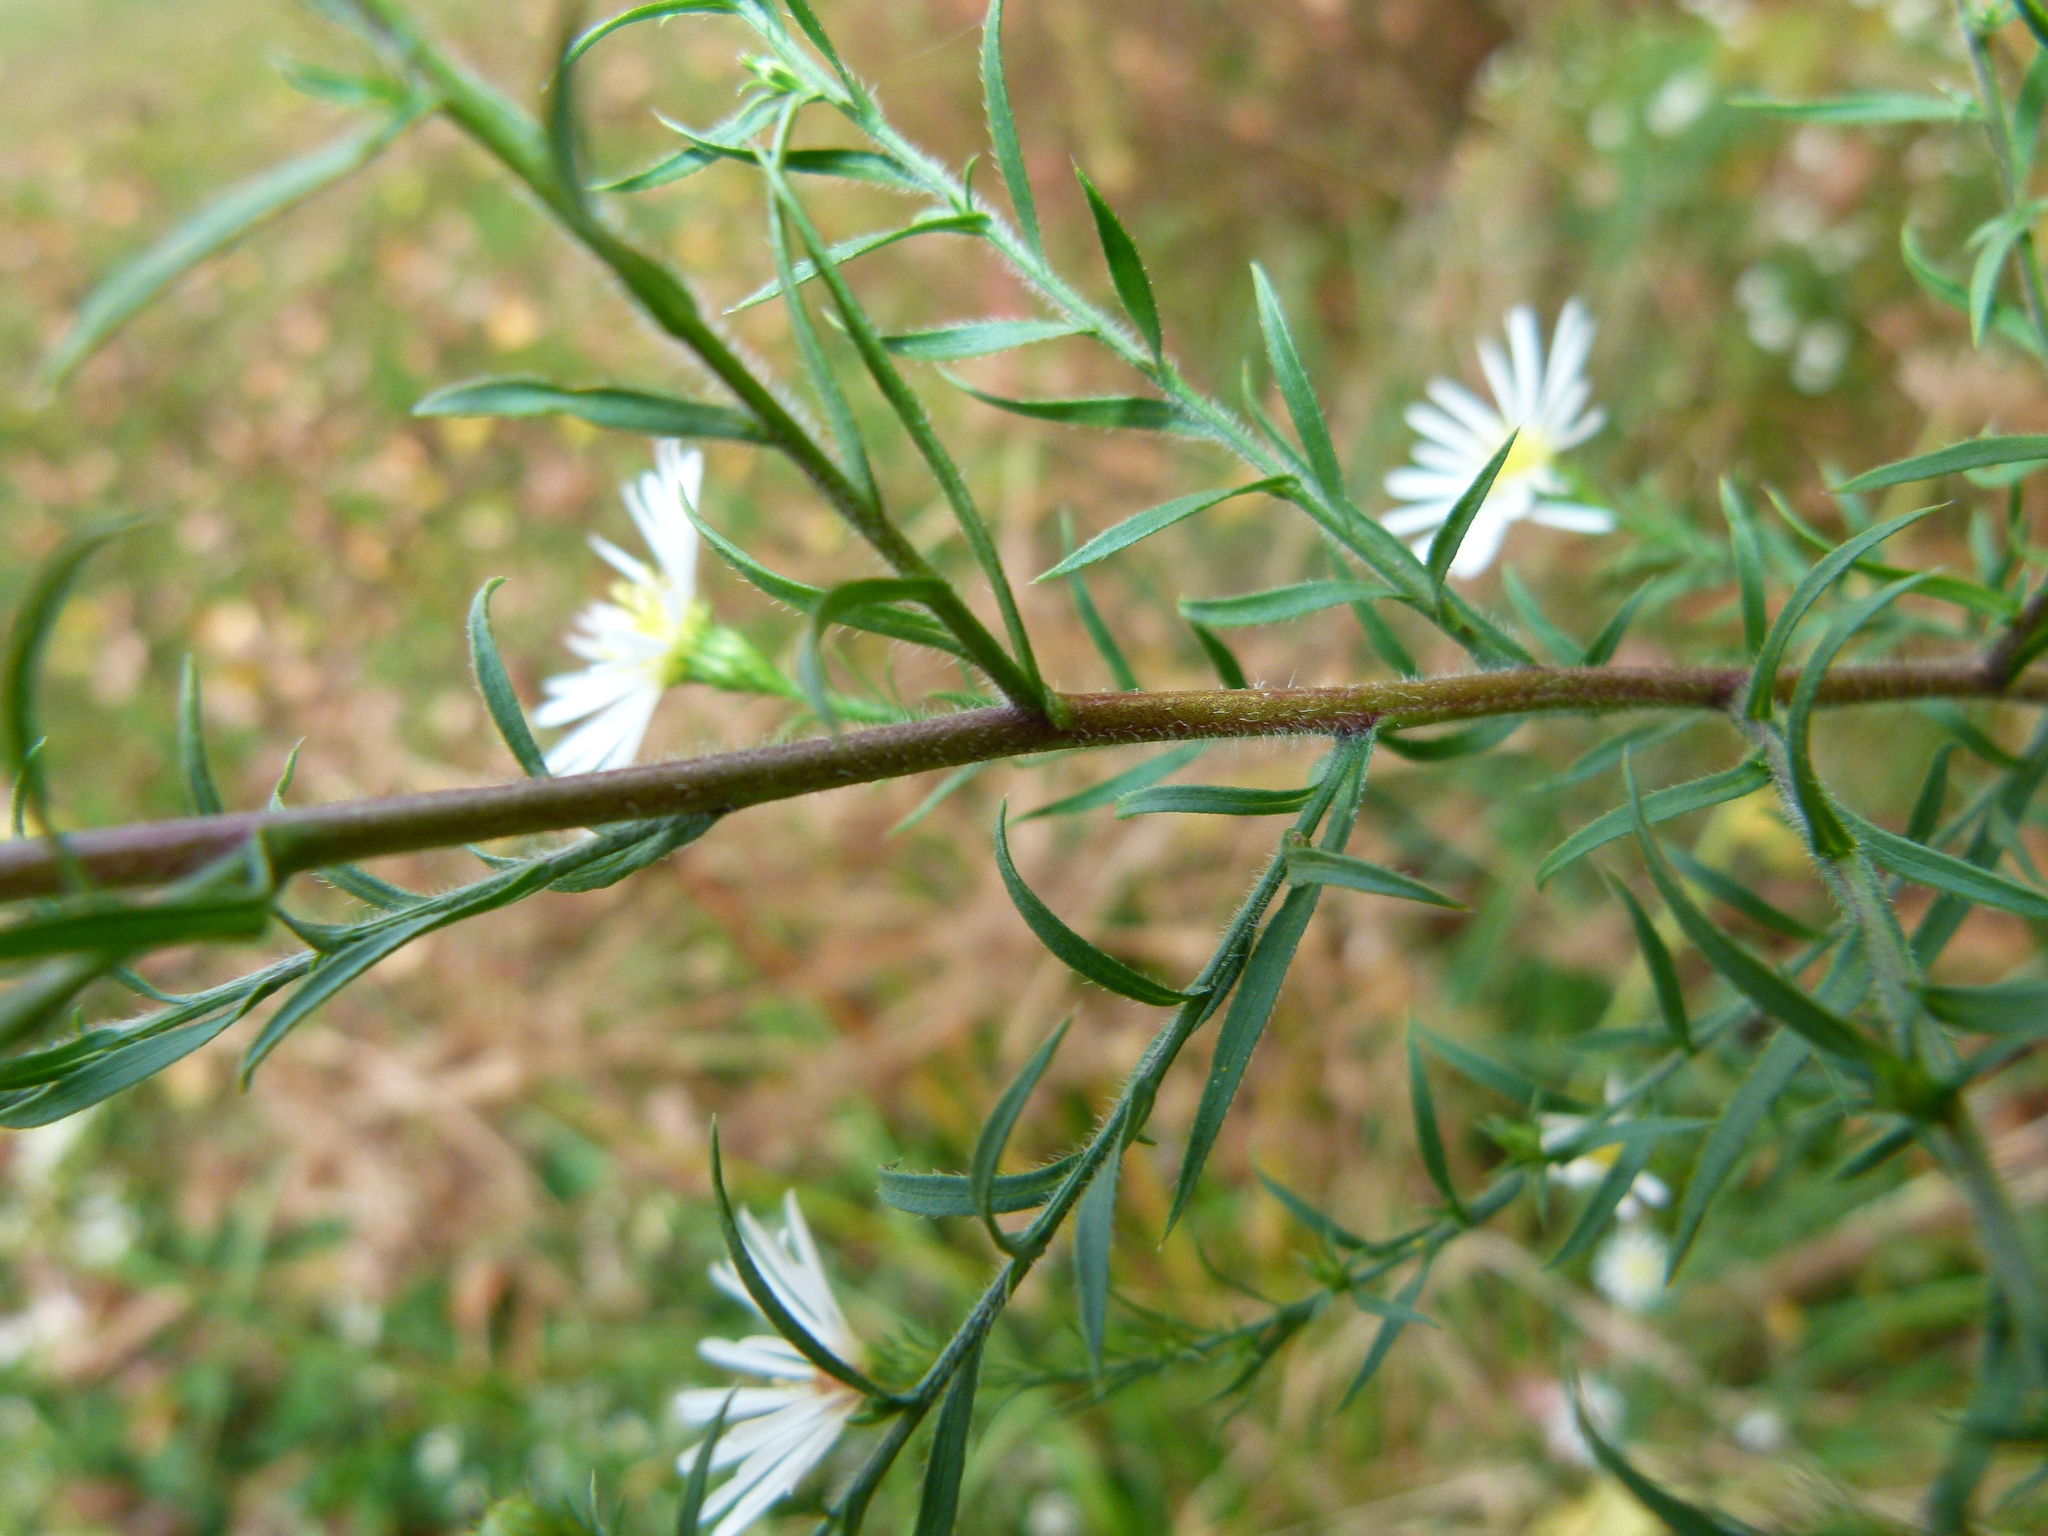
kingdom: Plantae
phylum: Tracheophyta
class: Magnoliopsida
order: Asterales
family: Asteraceae
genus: Symphyotrichum
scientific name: Symphyotrichum pilosum
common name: Awl aster
